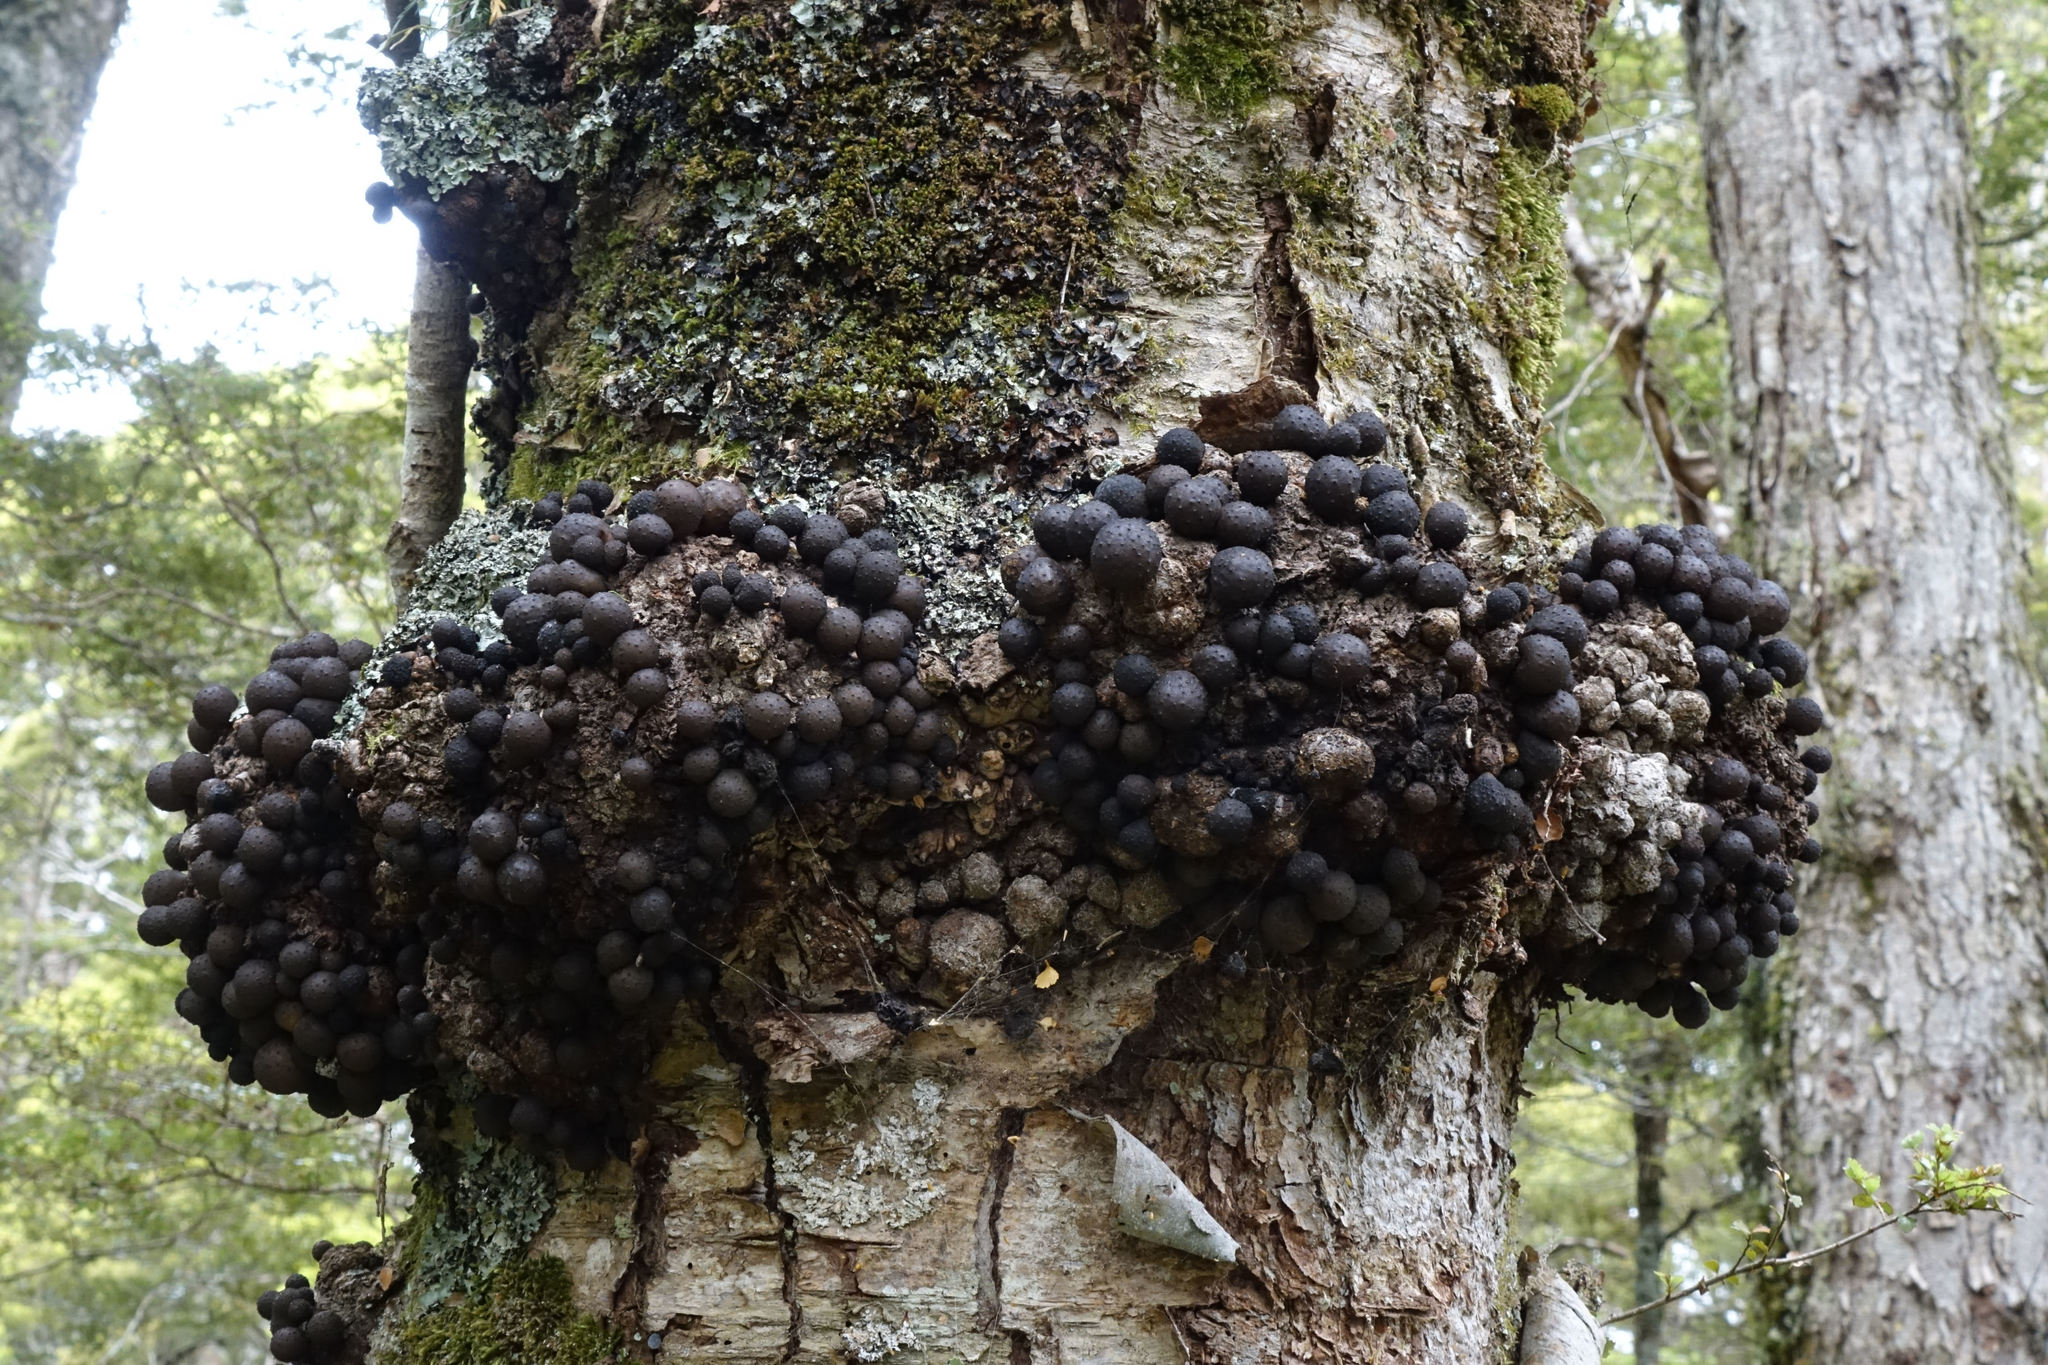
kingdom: Fungi
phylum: Ascomycota
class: Leotiomycetes
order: Cyttariales
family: Cyttariaceae
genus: Cyttaria
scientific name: Cyttaria nigra
